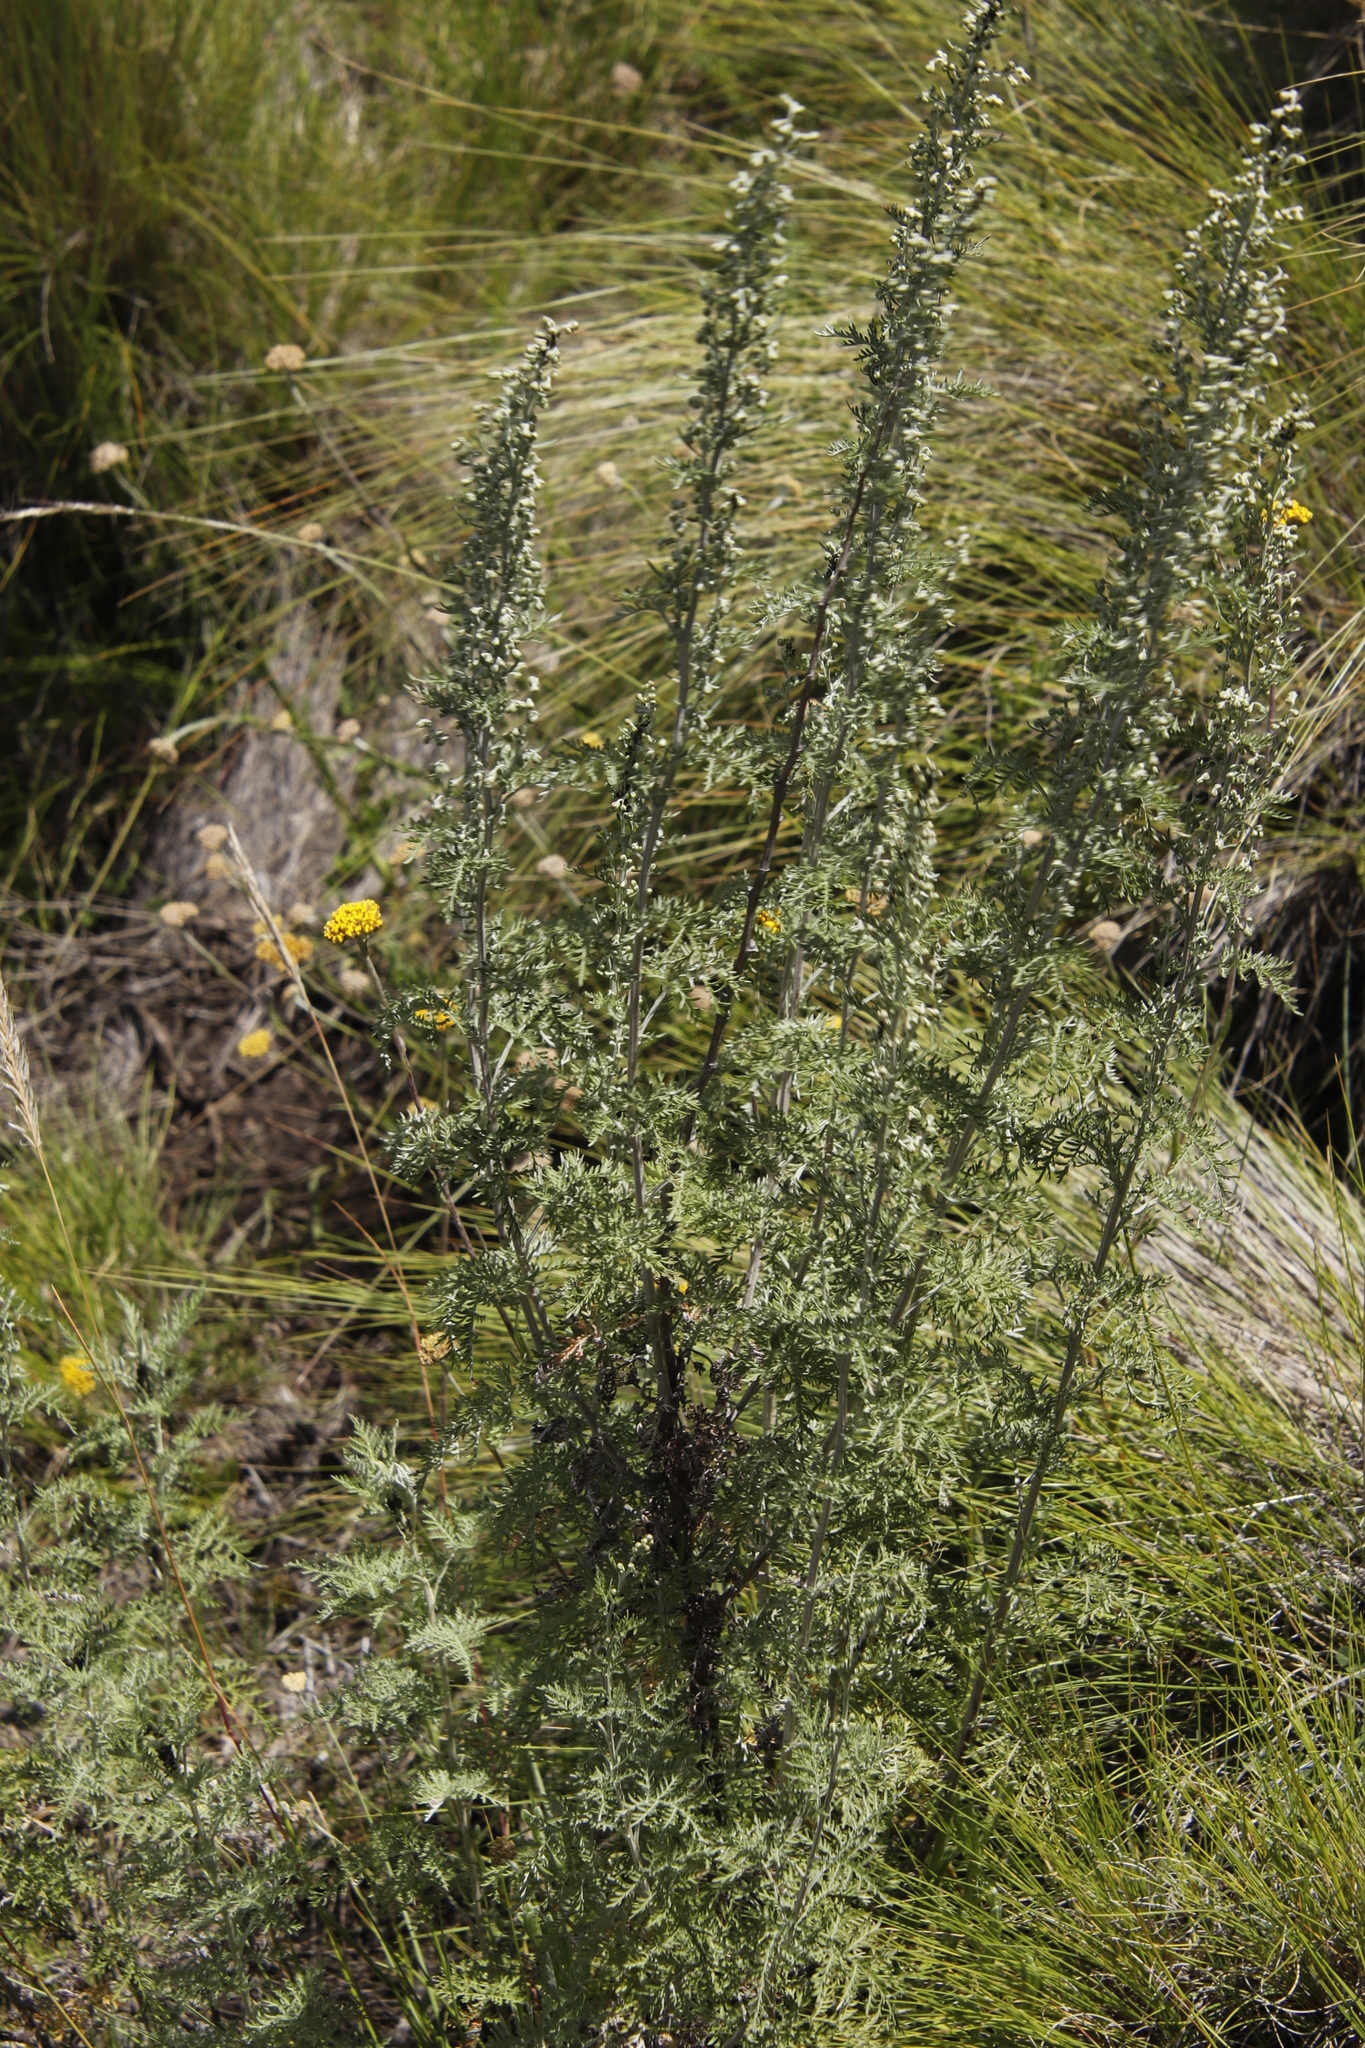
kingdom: Plantae
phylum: Tracheophyta
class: Magnoliopsida
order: Asterales
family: Asteraceae
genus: Artemisia
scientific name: Artemisia afra
